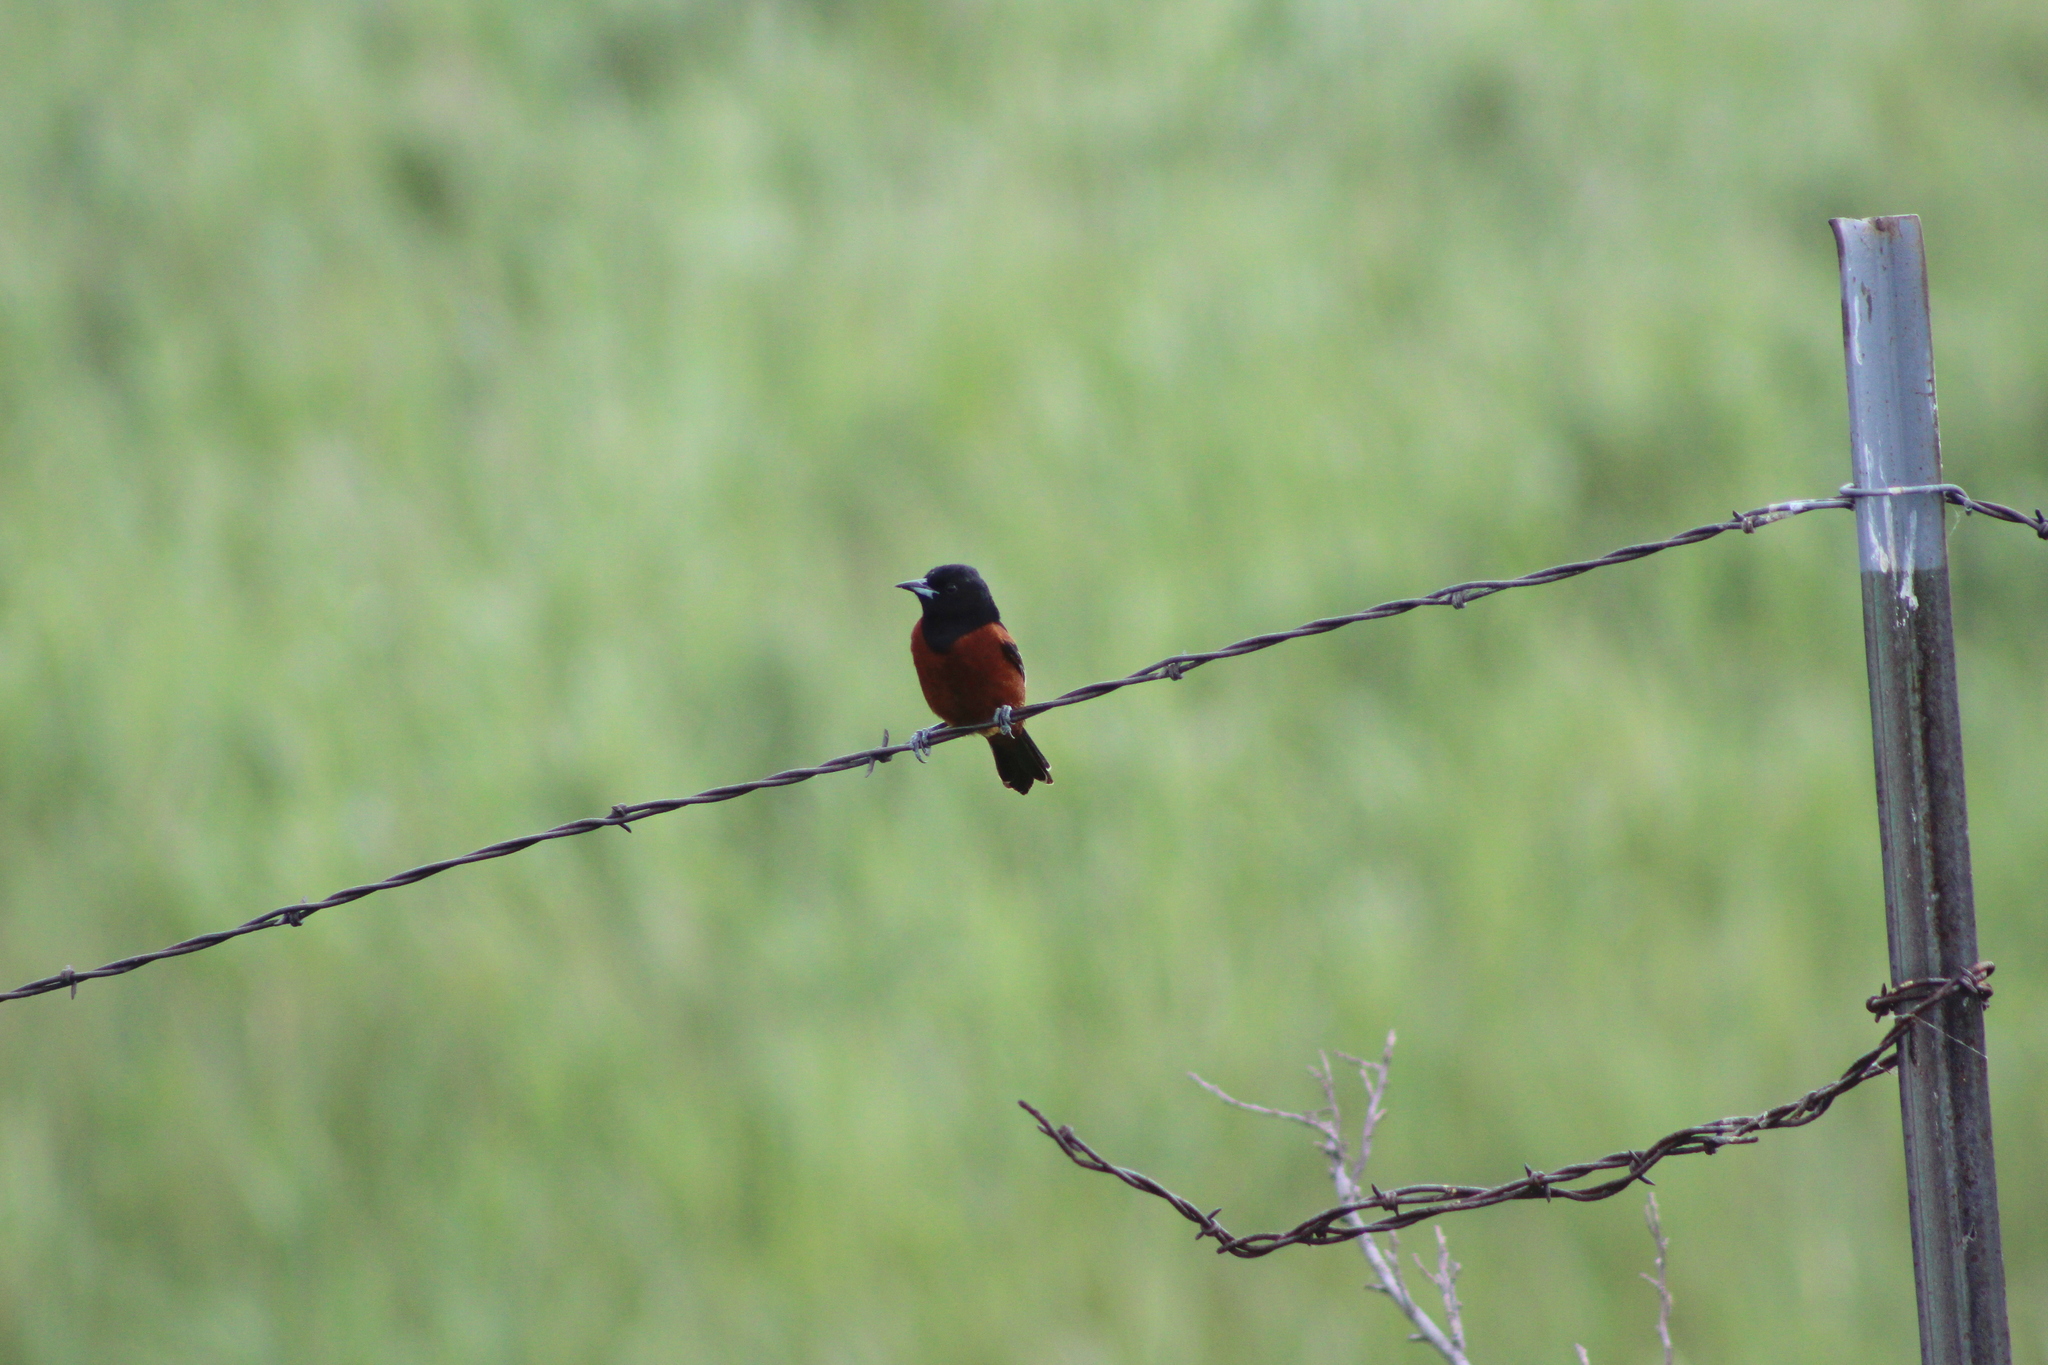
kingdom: Animalia
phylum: Chordata
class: Aves
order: Passeriformes
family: Icteridae
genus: Icterus
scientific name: Icterus spurius
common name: Orchard oriole
